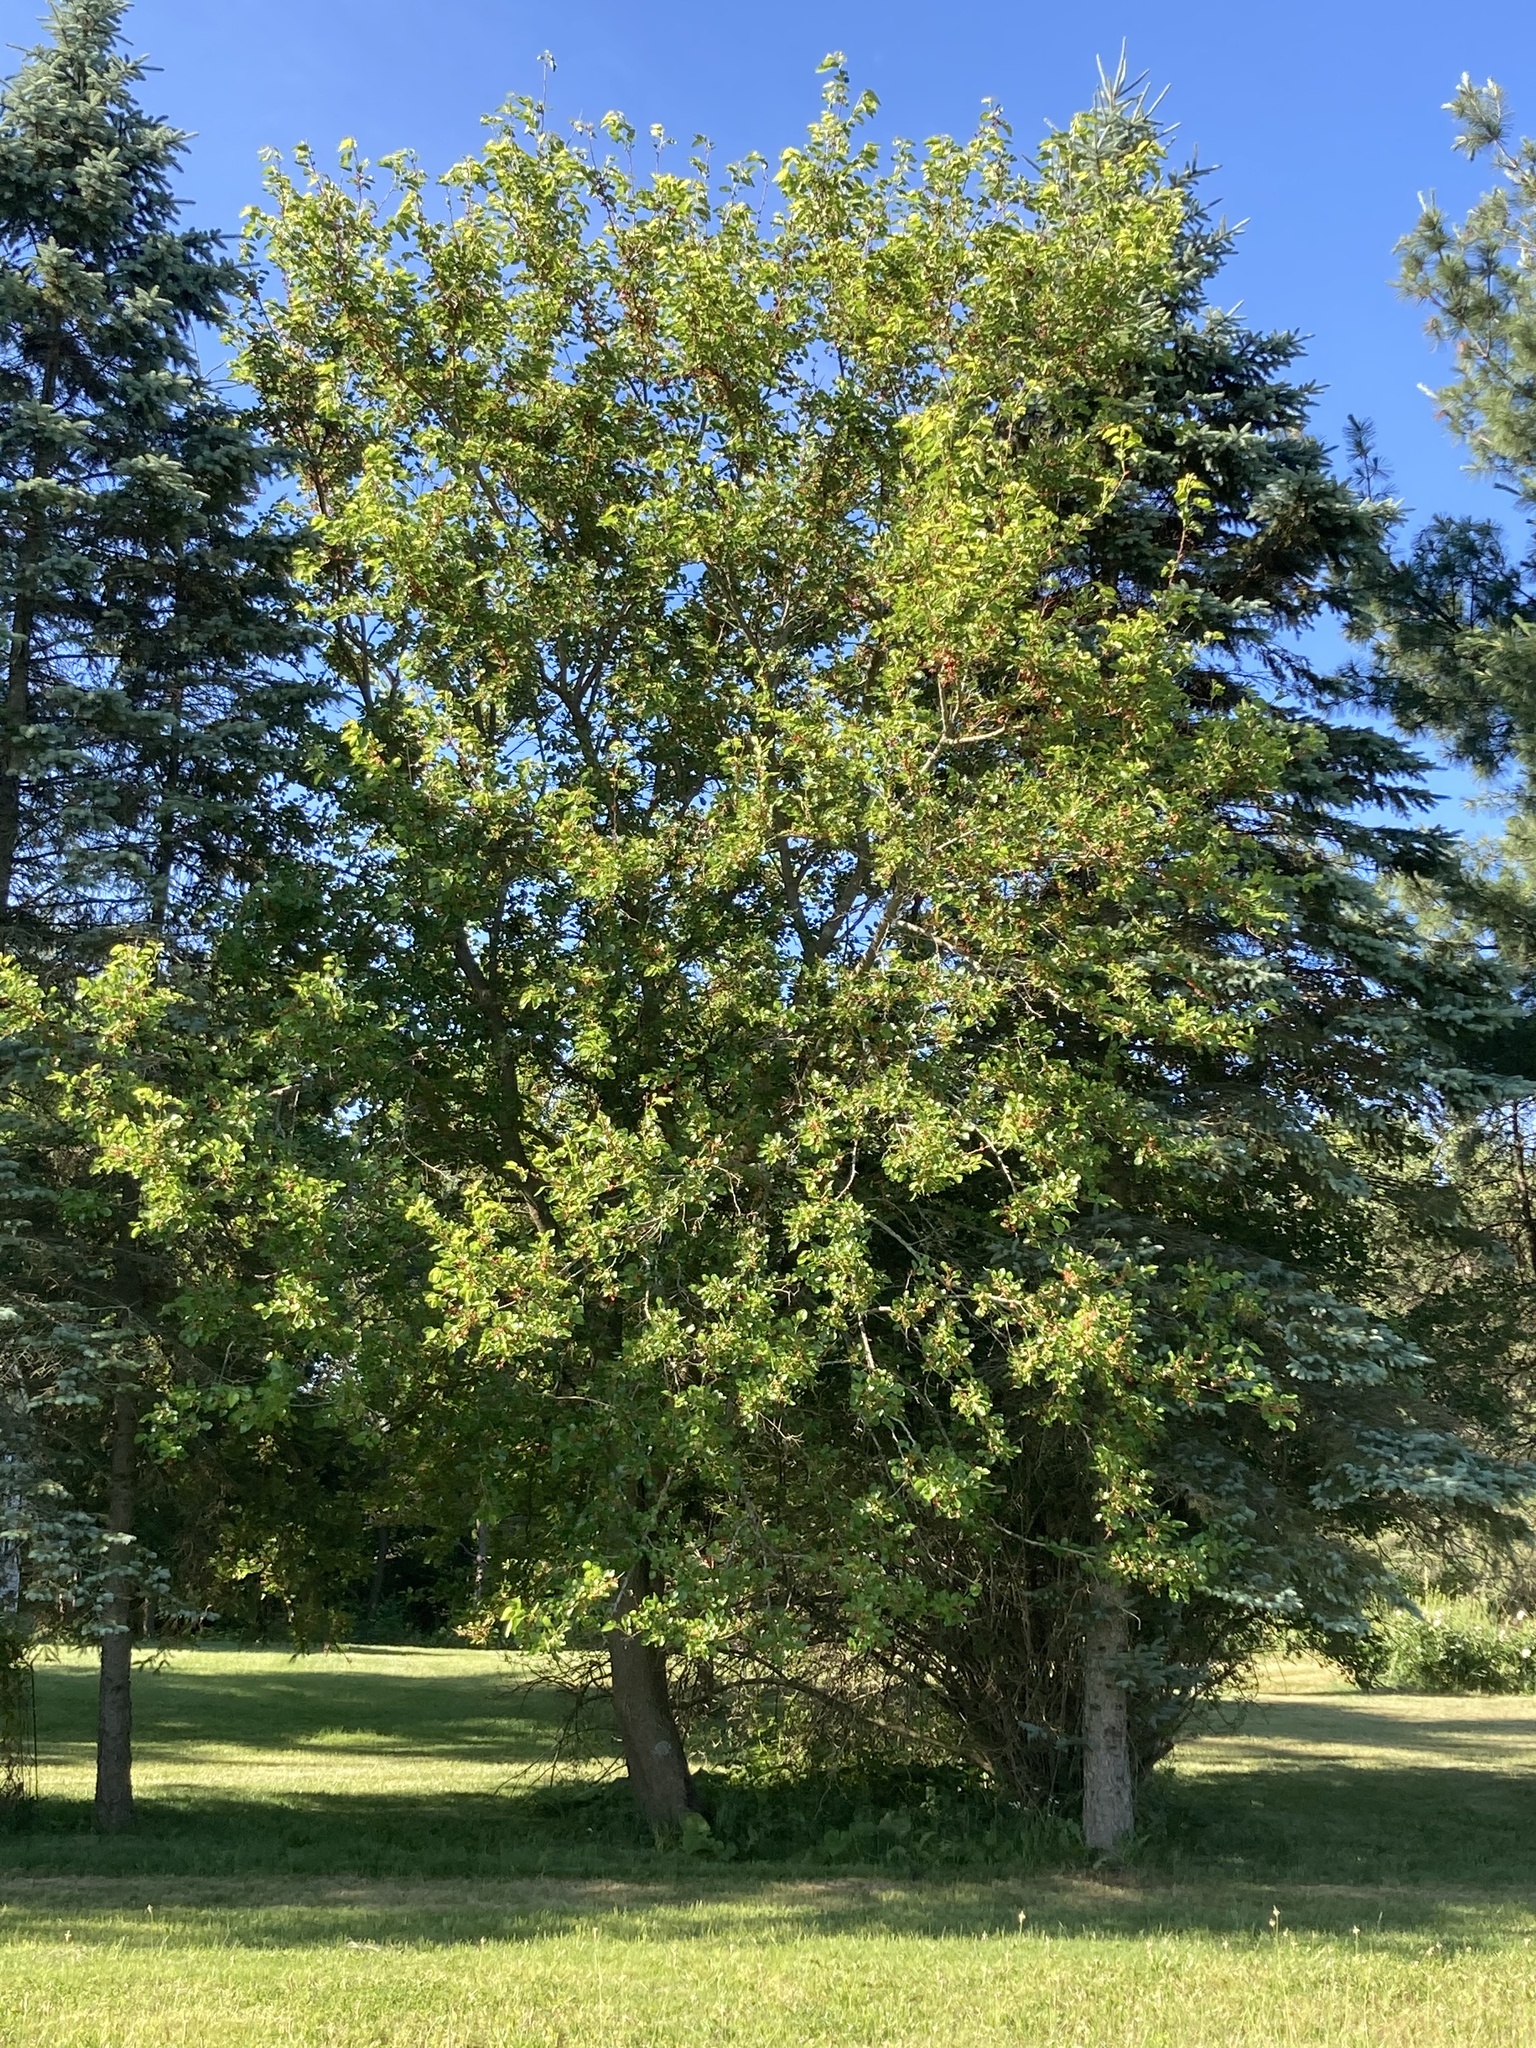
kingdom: Plantae
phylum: Tracheophyta
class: Magnoliopsida
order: Rosales
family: Moraceae
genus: Morus
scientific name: Morus alba
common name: White mulberry
